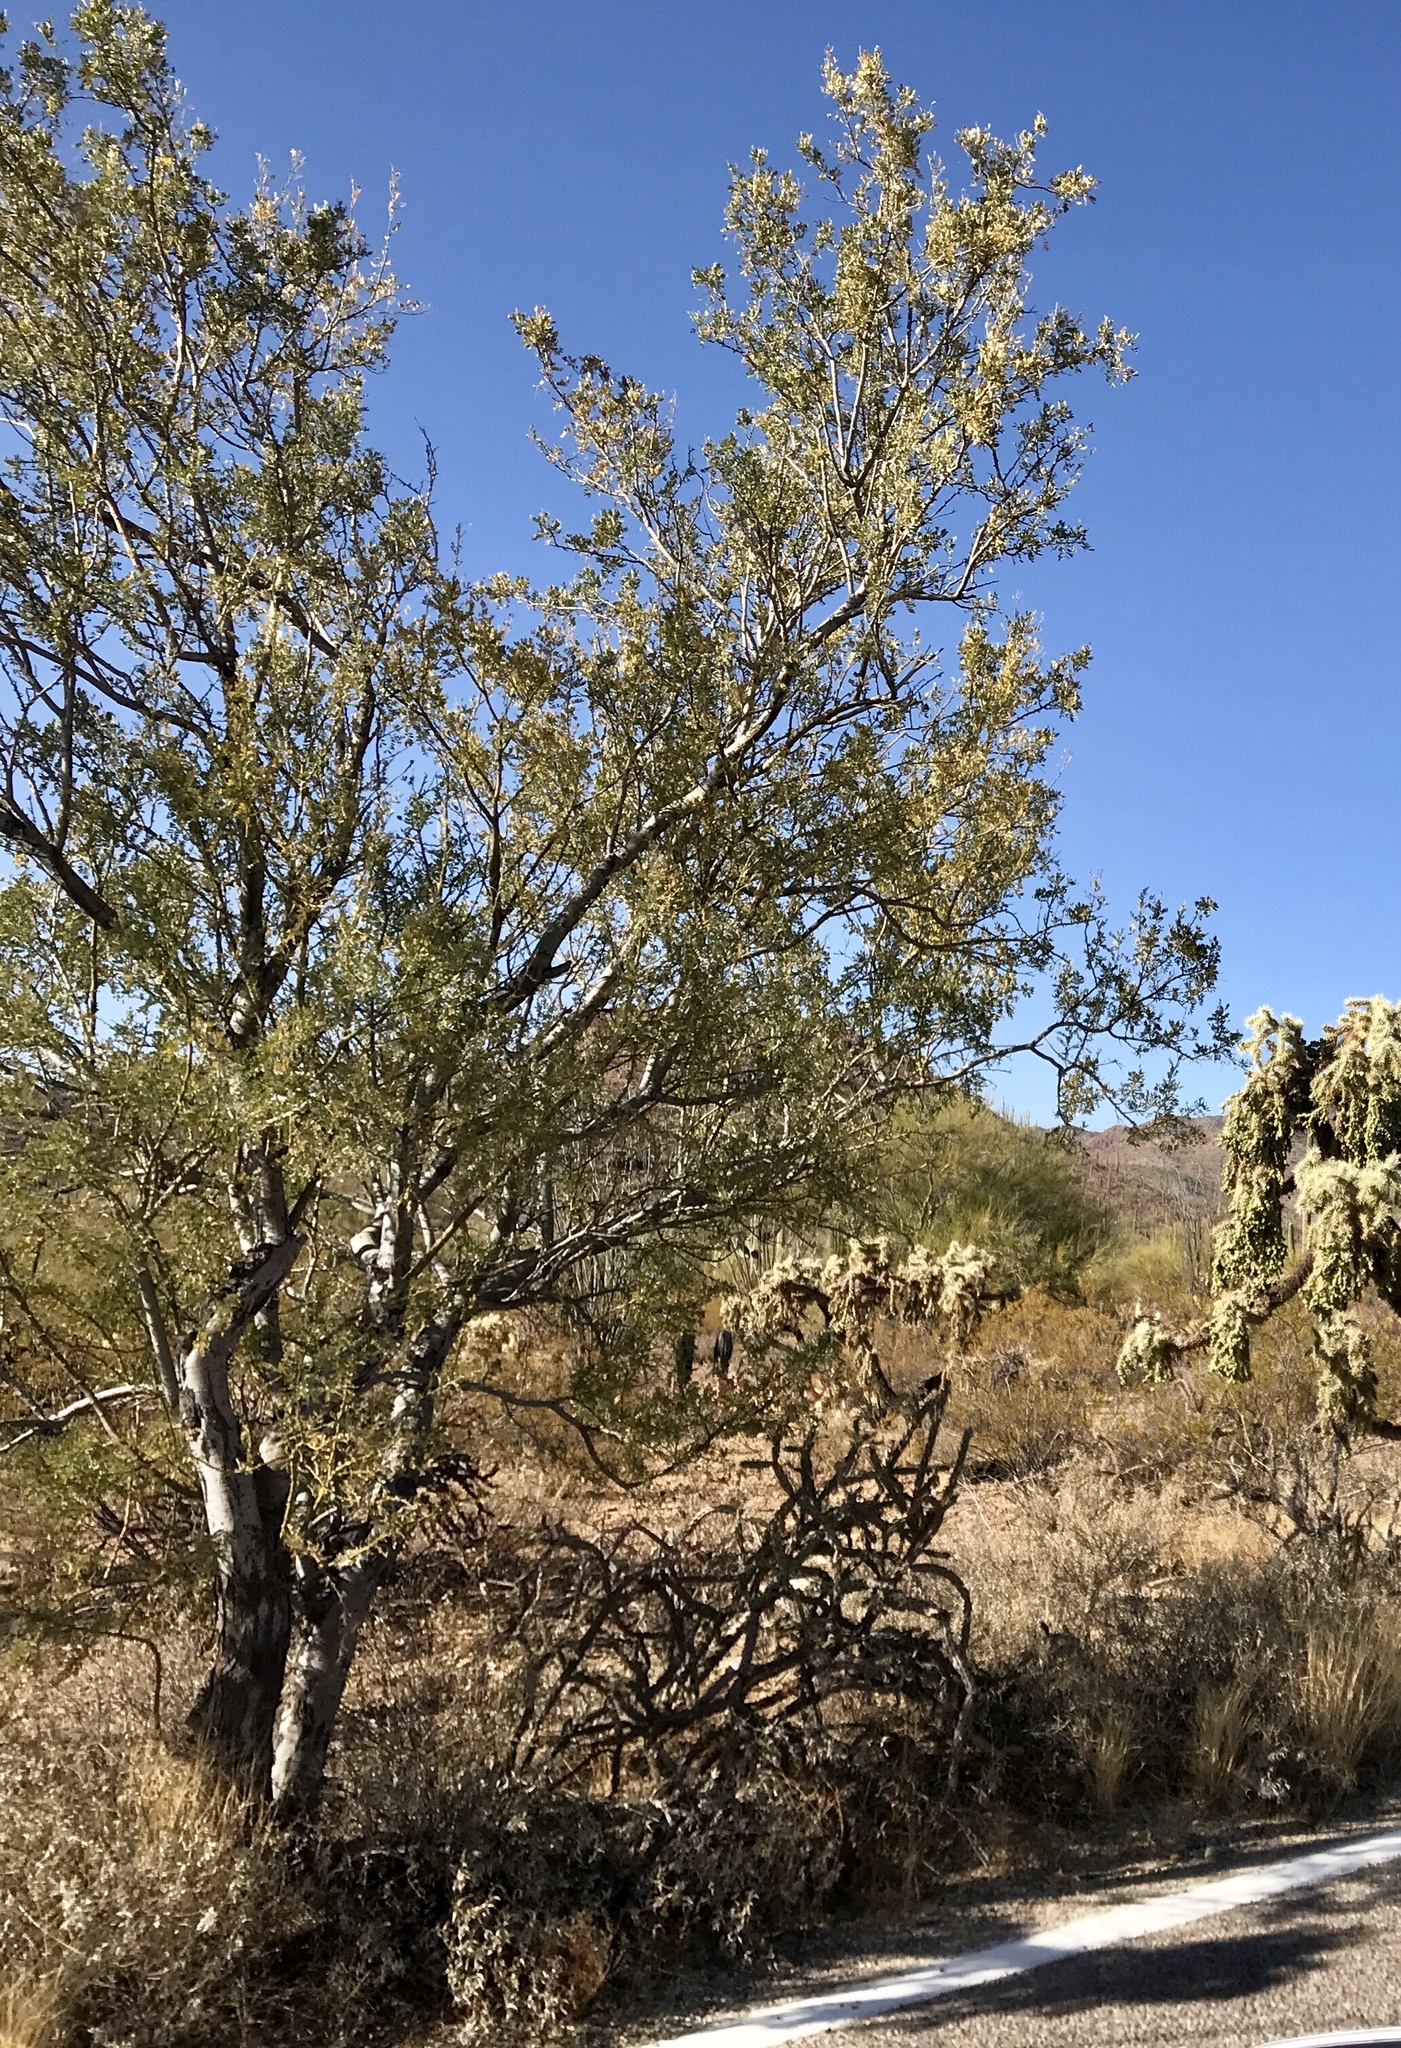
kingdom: Plantae
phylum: Tracheophyta
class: Magnoliopsida
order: Fabales
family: Fabaceae
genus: Olneya
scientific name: Olneya tesota
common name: Desert ironwood
